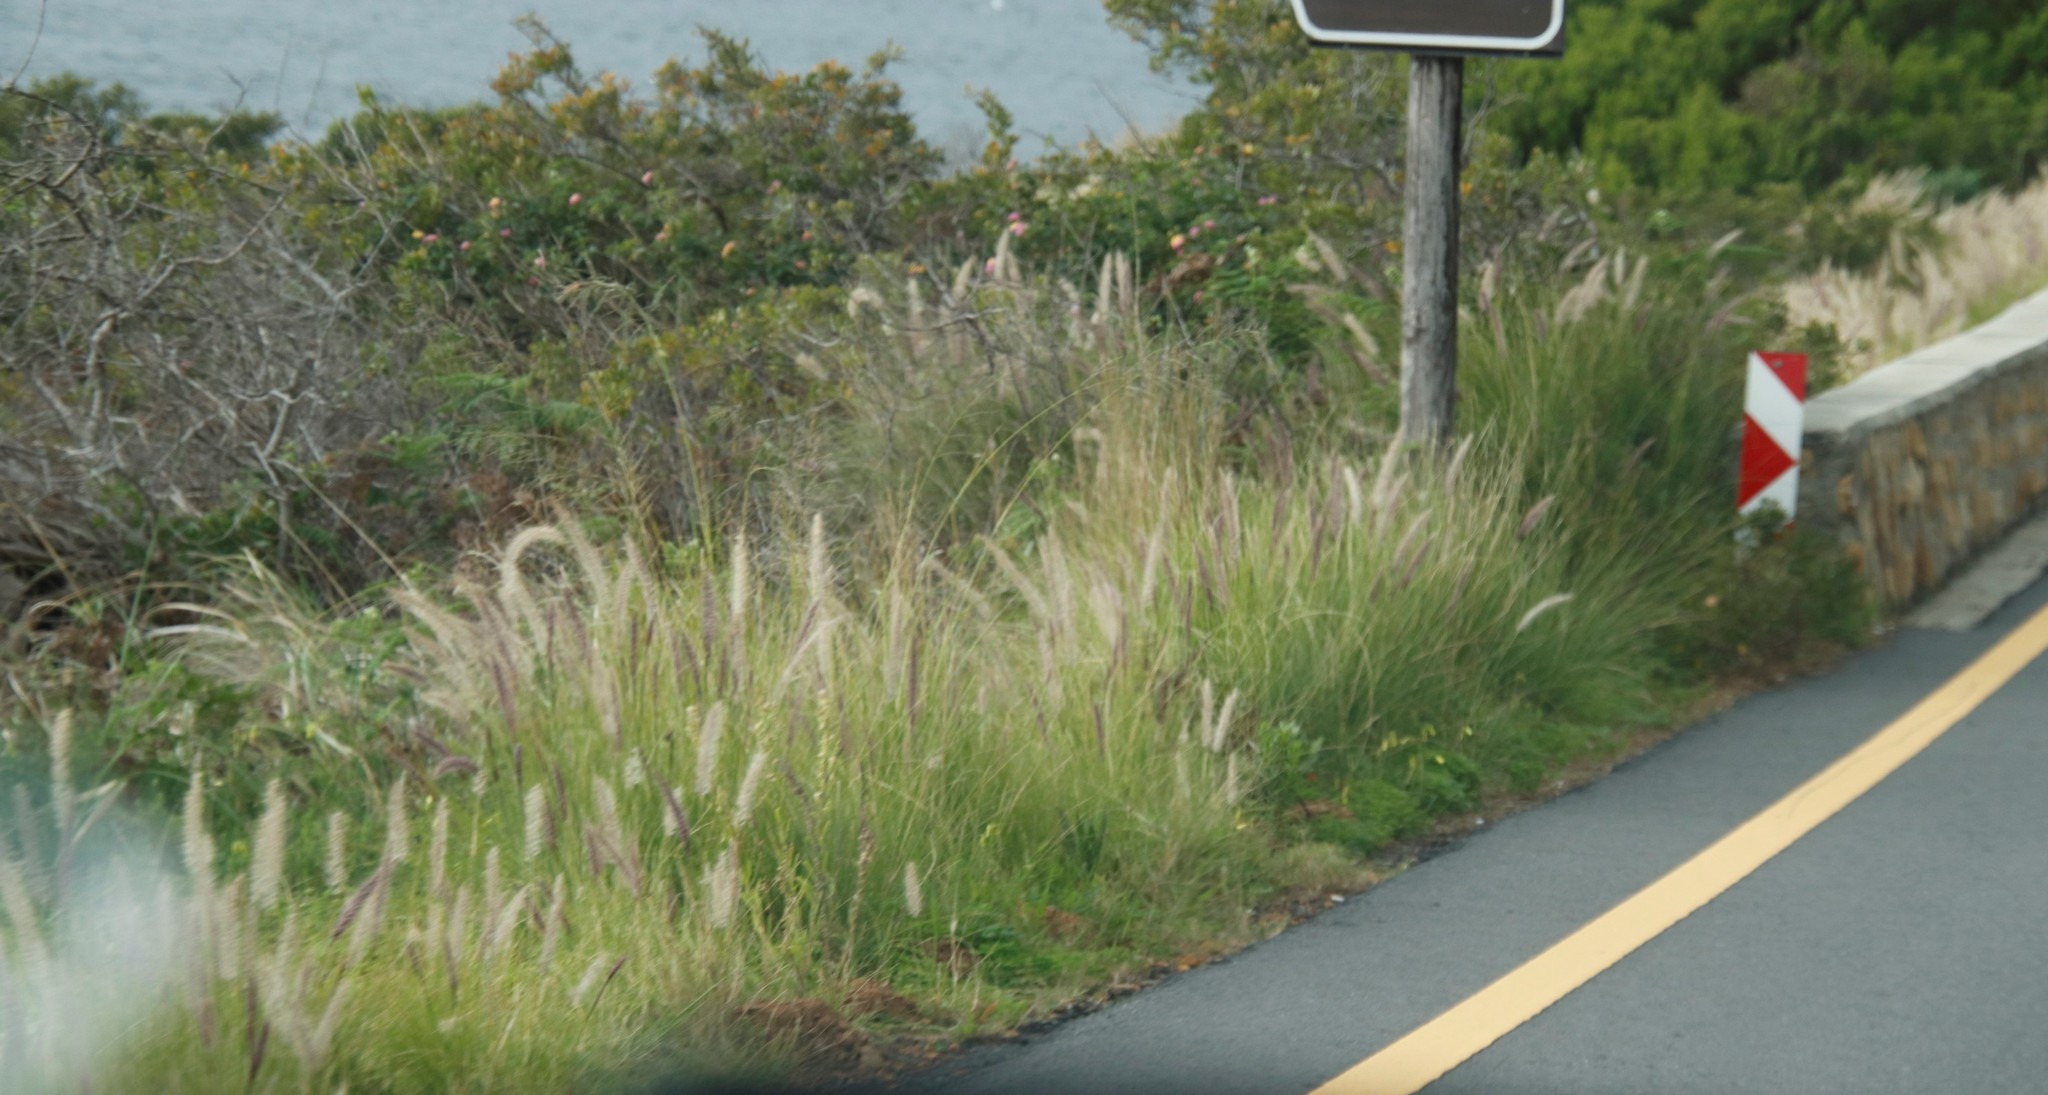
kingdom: Plantae
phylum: Tracheophyta
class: Liliopsida
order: Poales
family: Poaceae
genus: Cenchrus
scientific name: Cenchrus setaceus
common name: Crimson fountaingrass
